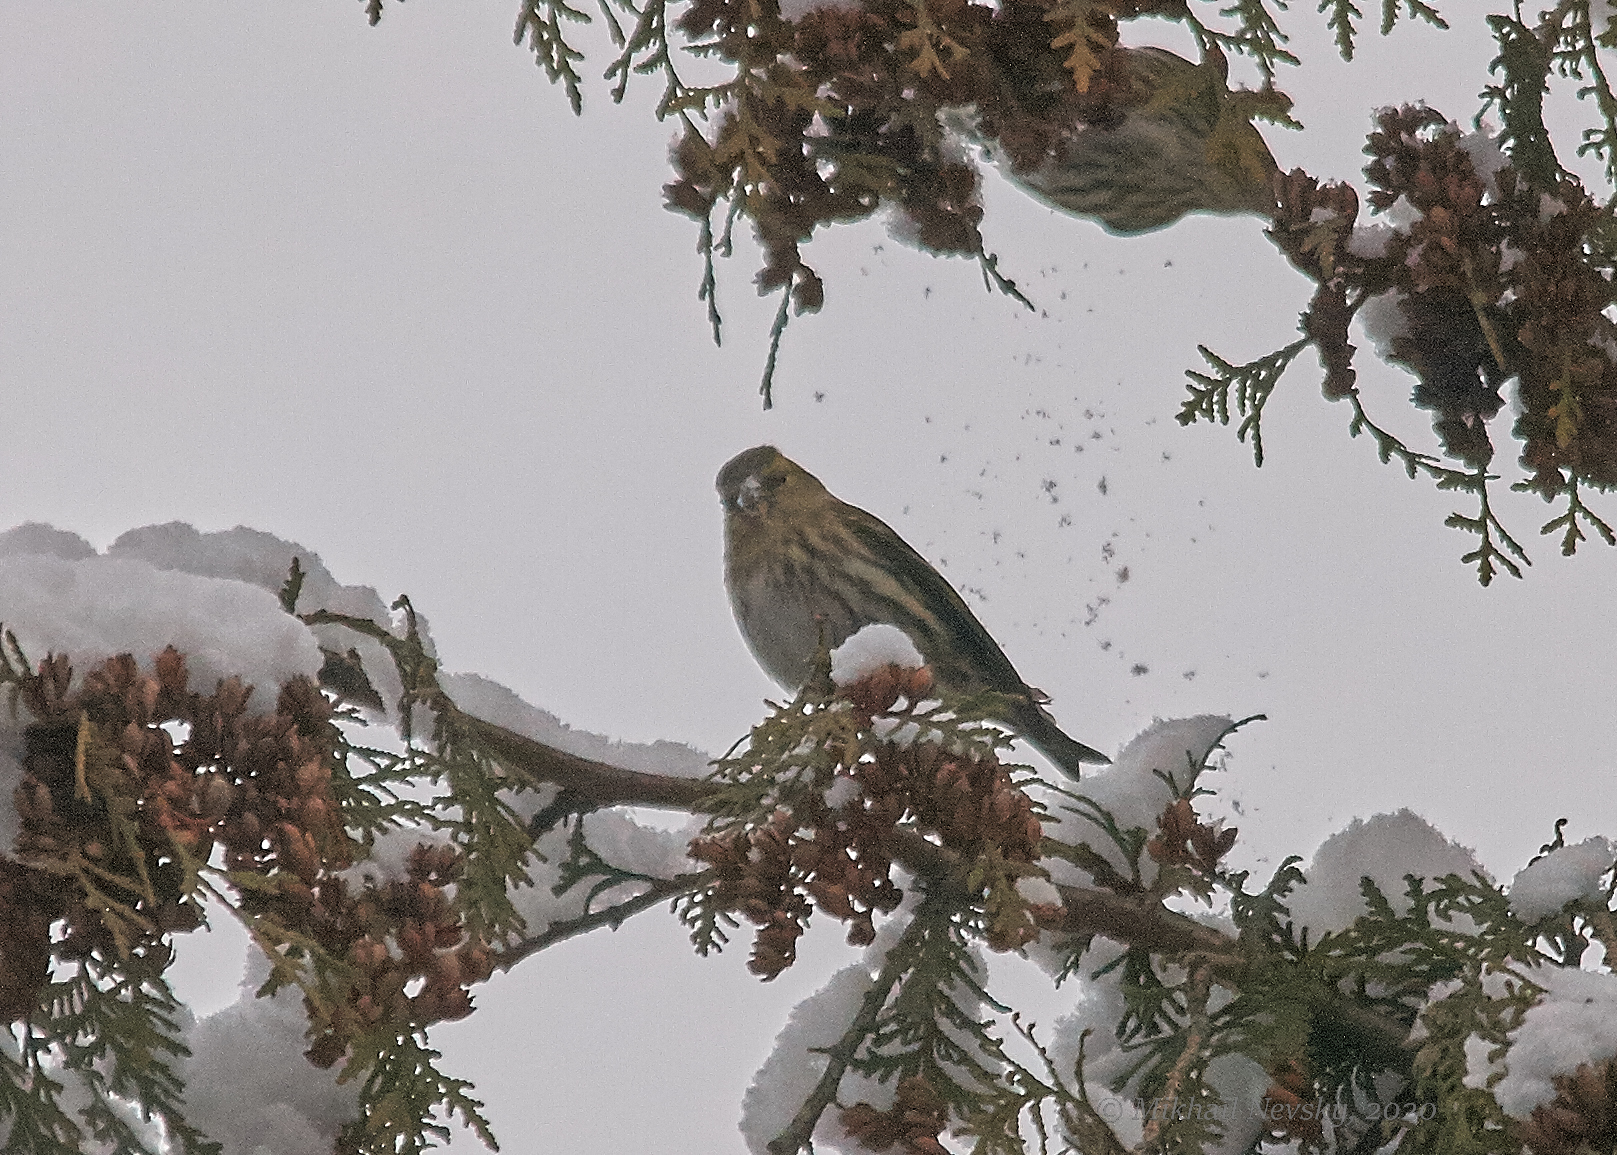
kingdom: Animalia
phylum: Chordata
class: Aves
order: Passeriformes
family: Fringillidae
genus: Spinus
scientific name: Spinus spinus
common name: Eurasian siskin
